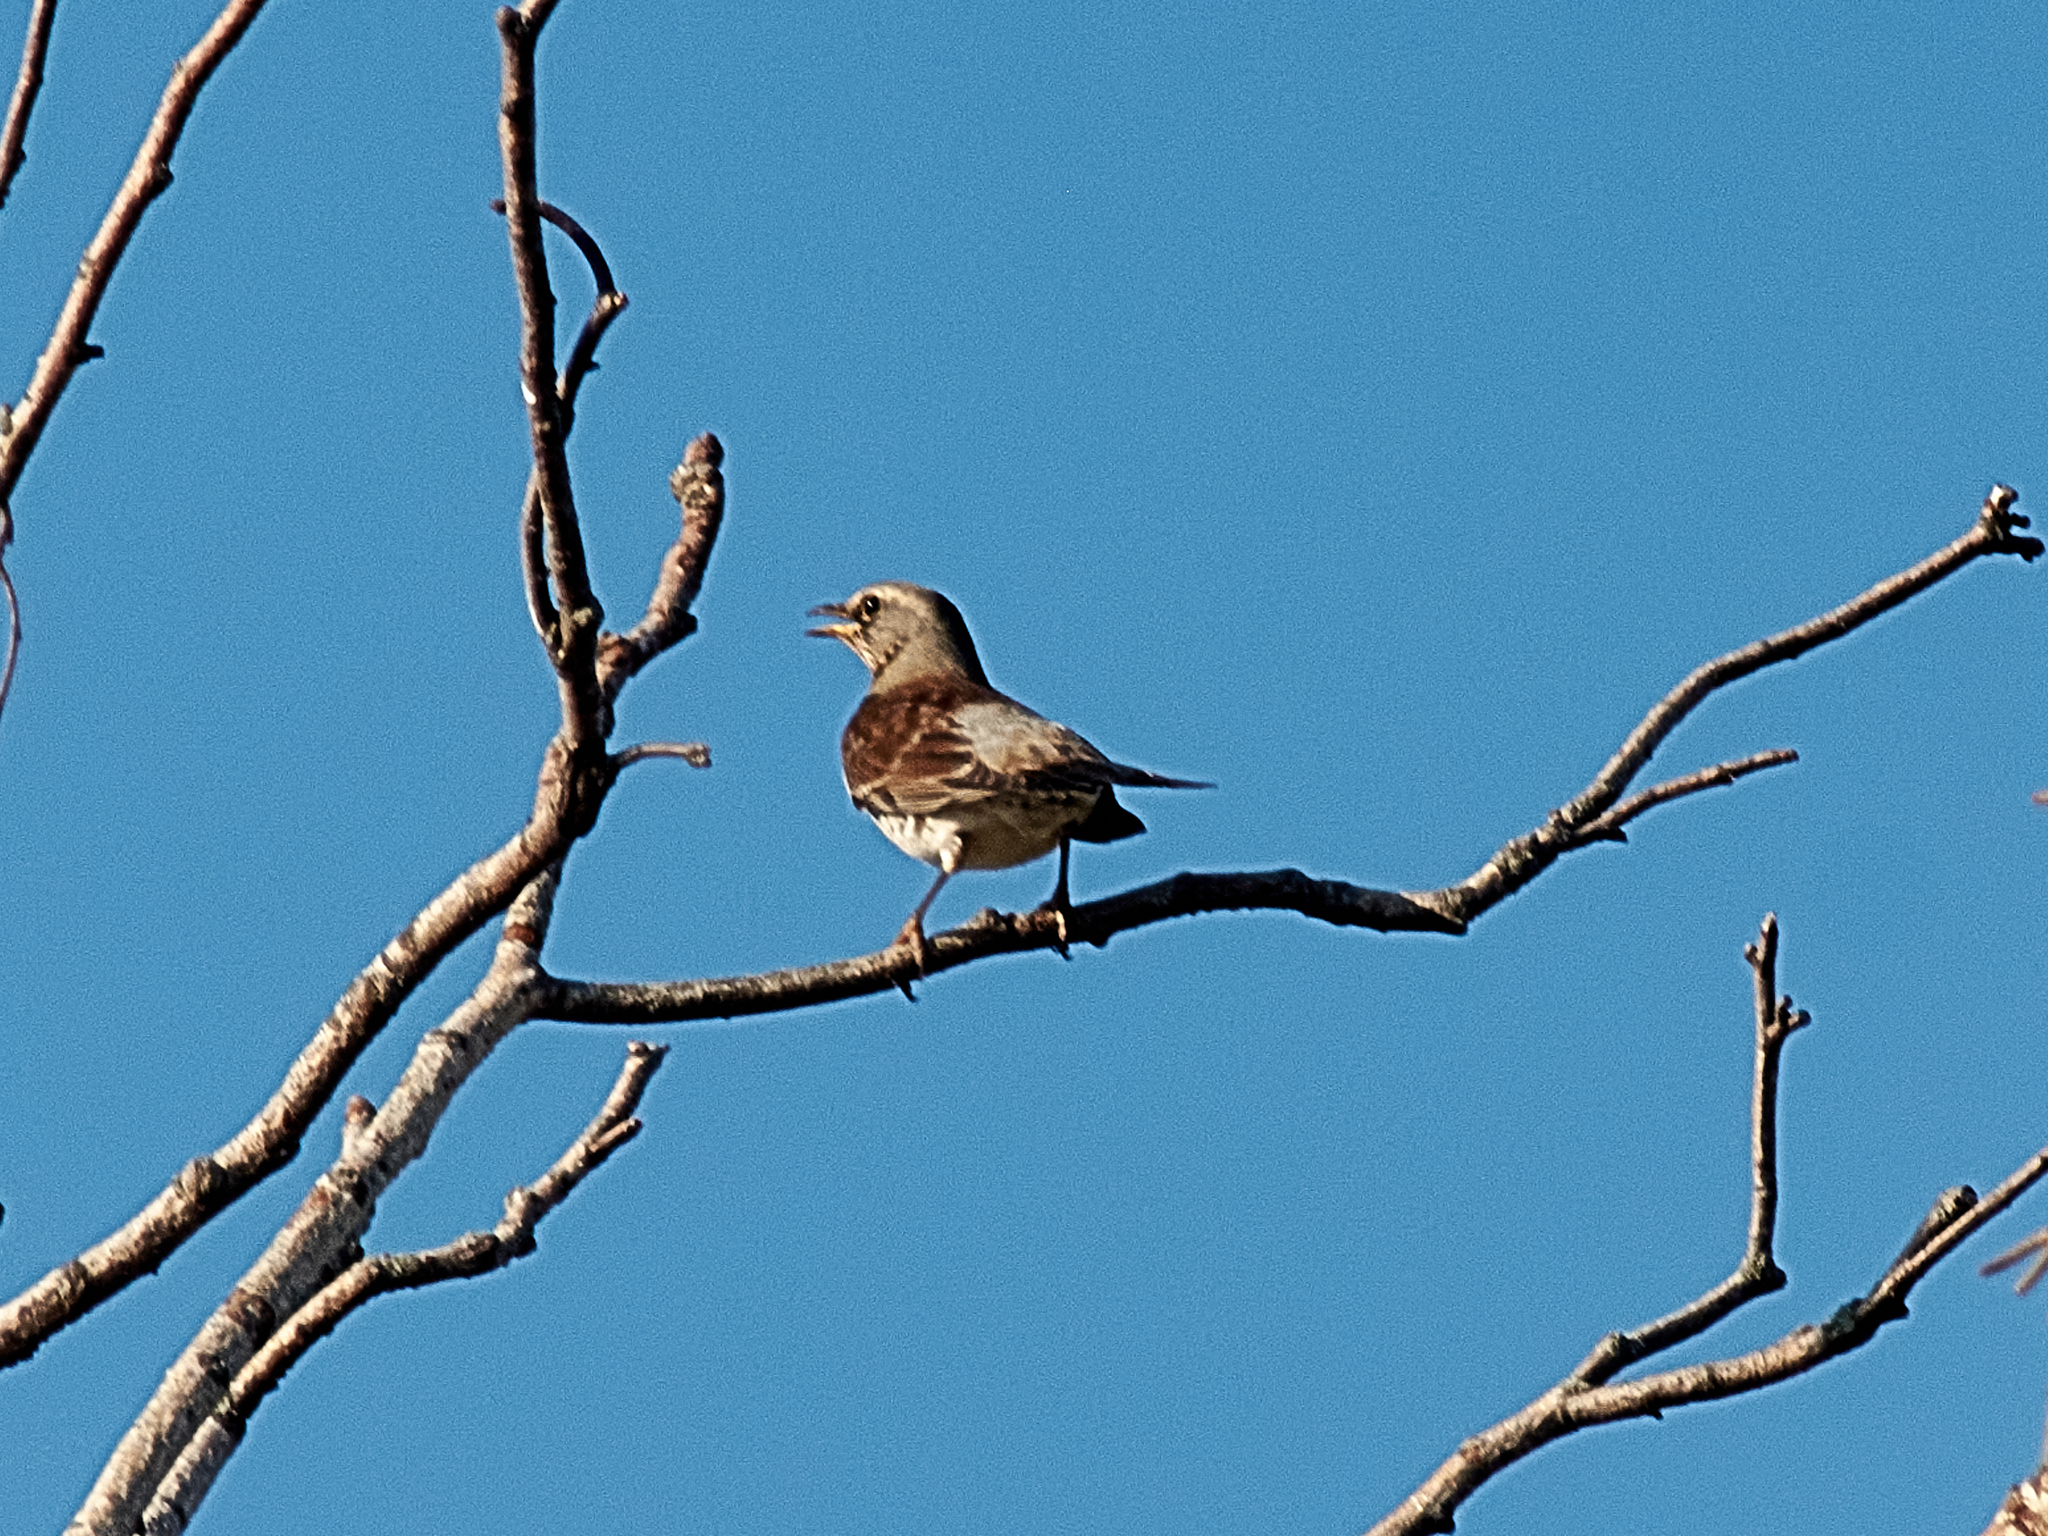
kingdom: Animalia
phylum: Chordata
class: Aves
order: Passeriformes
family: Turdidae
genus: Turdus
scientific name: Turdus pilaris
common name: Fieldfare
